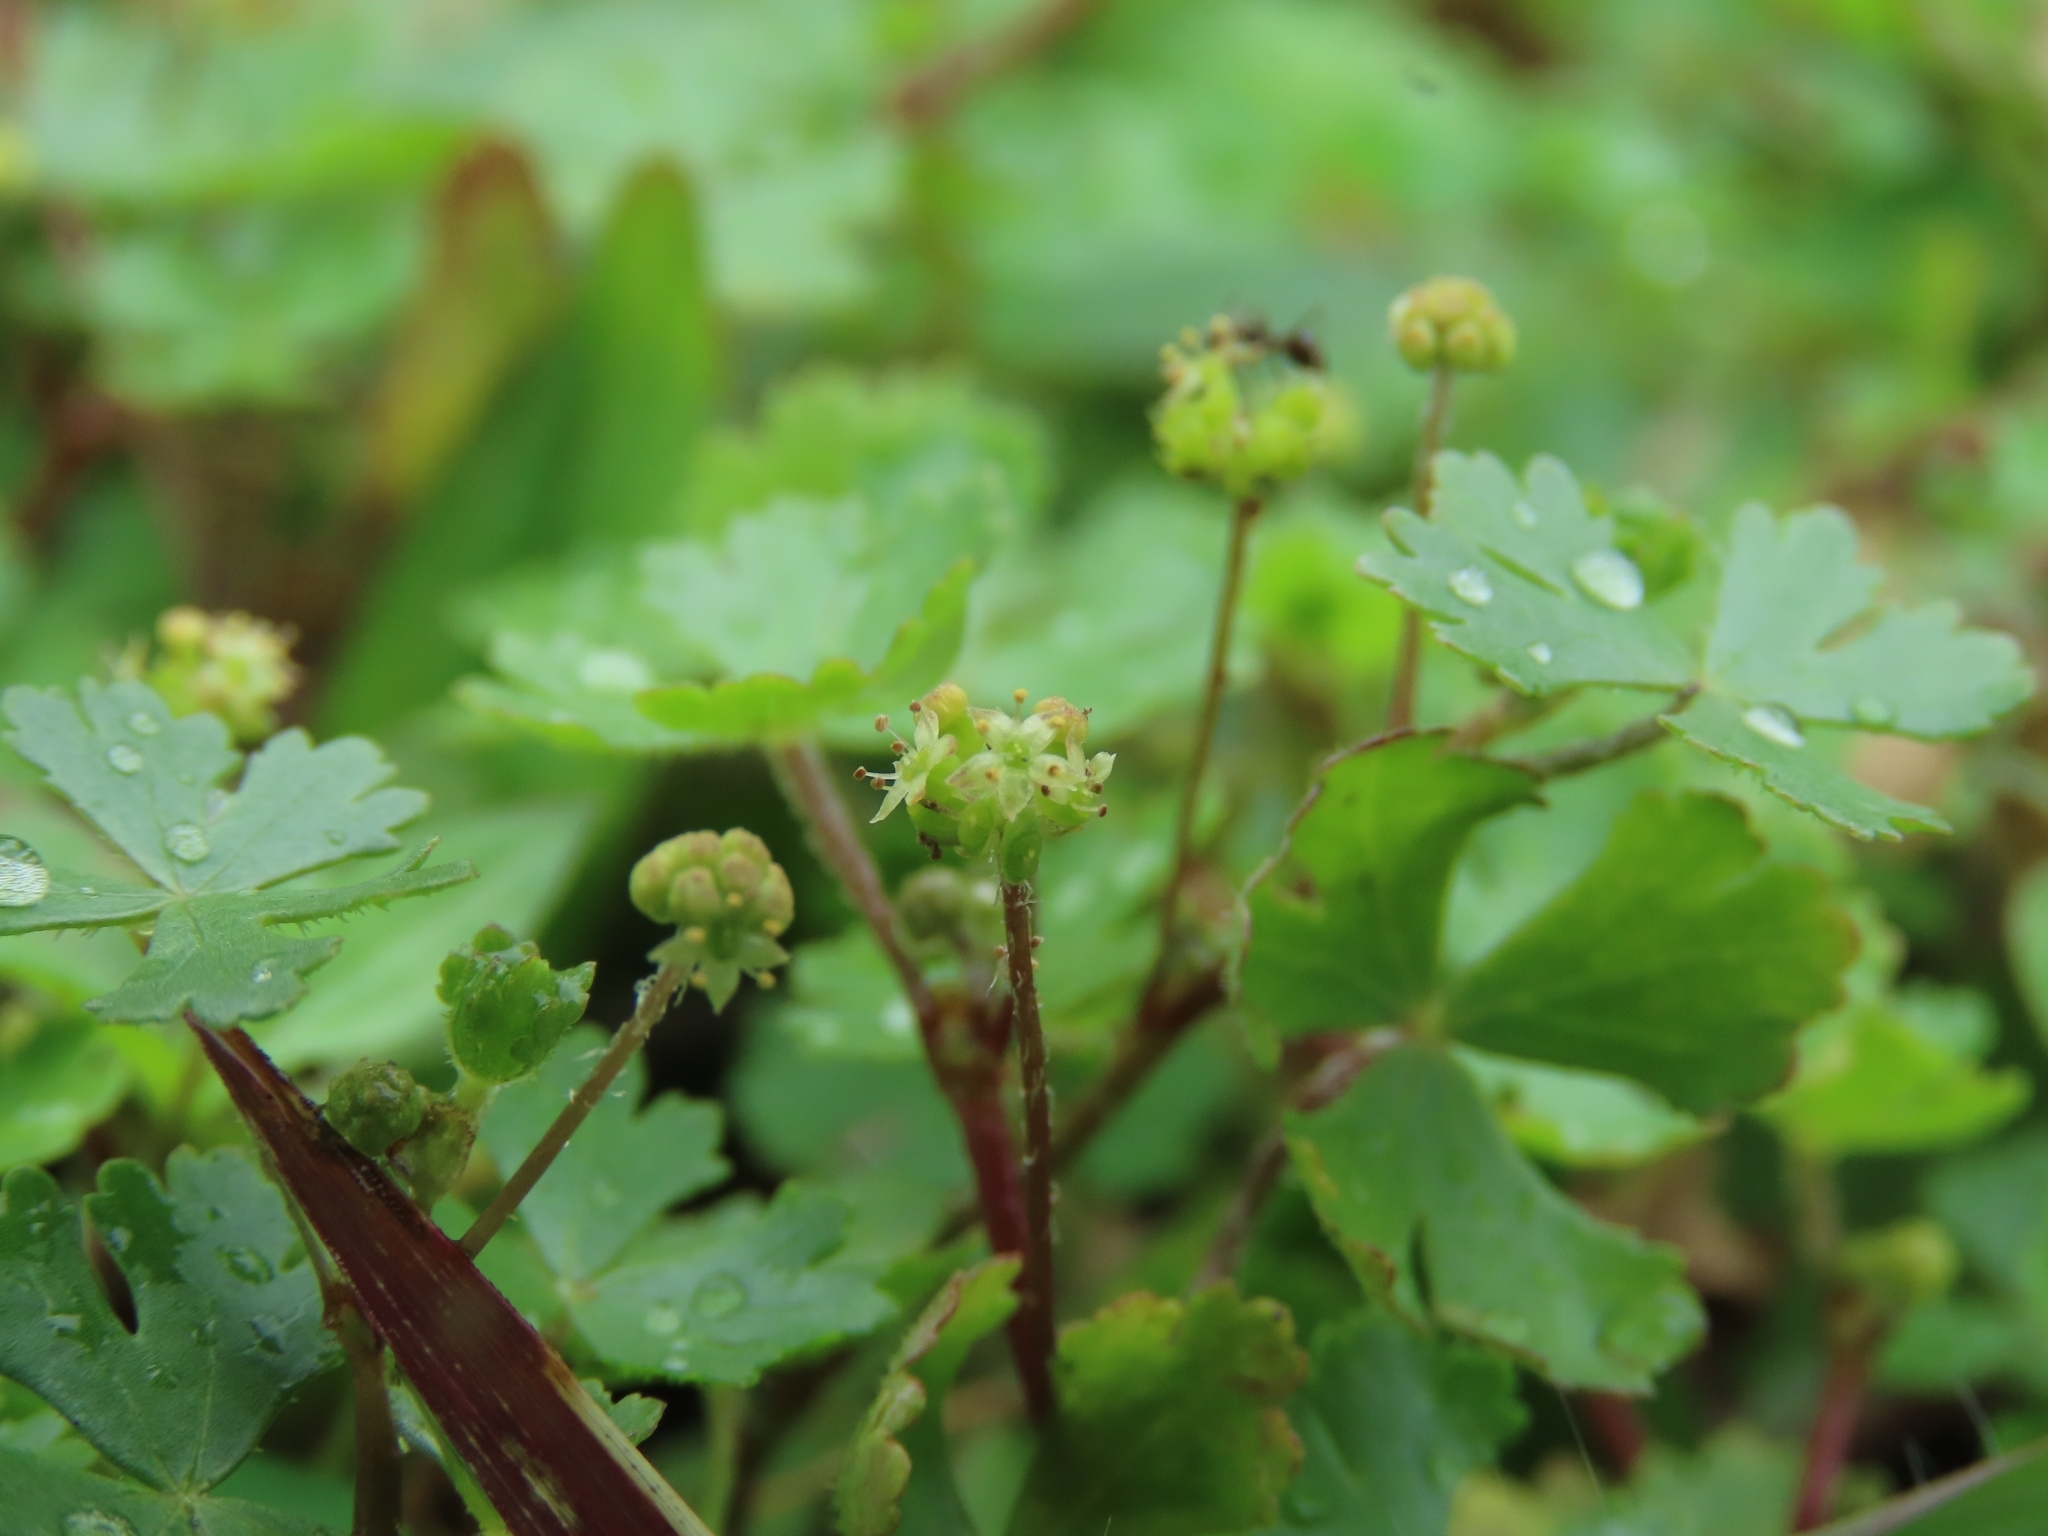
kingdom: Plantae
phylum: Tracheophyta
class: Magnoliopsida
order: Apiales
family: Araliaceae
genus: Hydrocotyle
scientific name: Hydrocotyle batrachium
